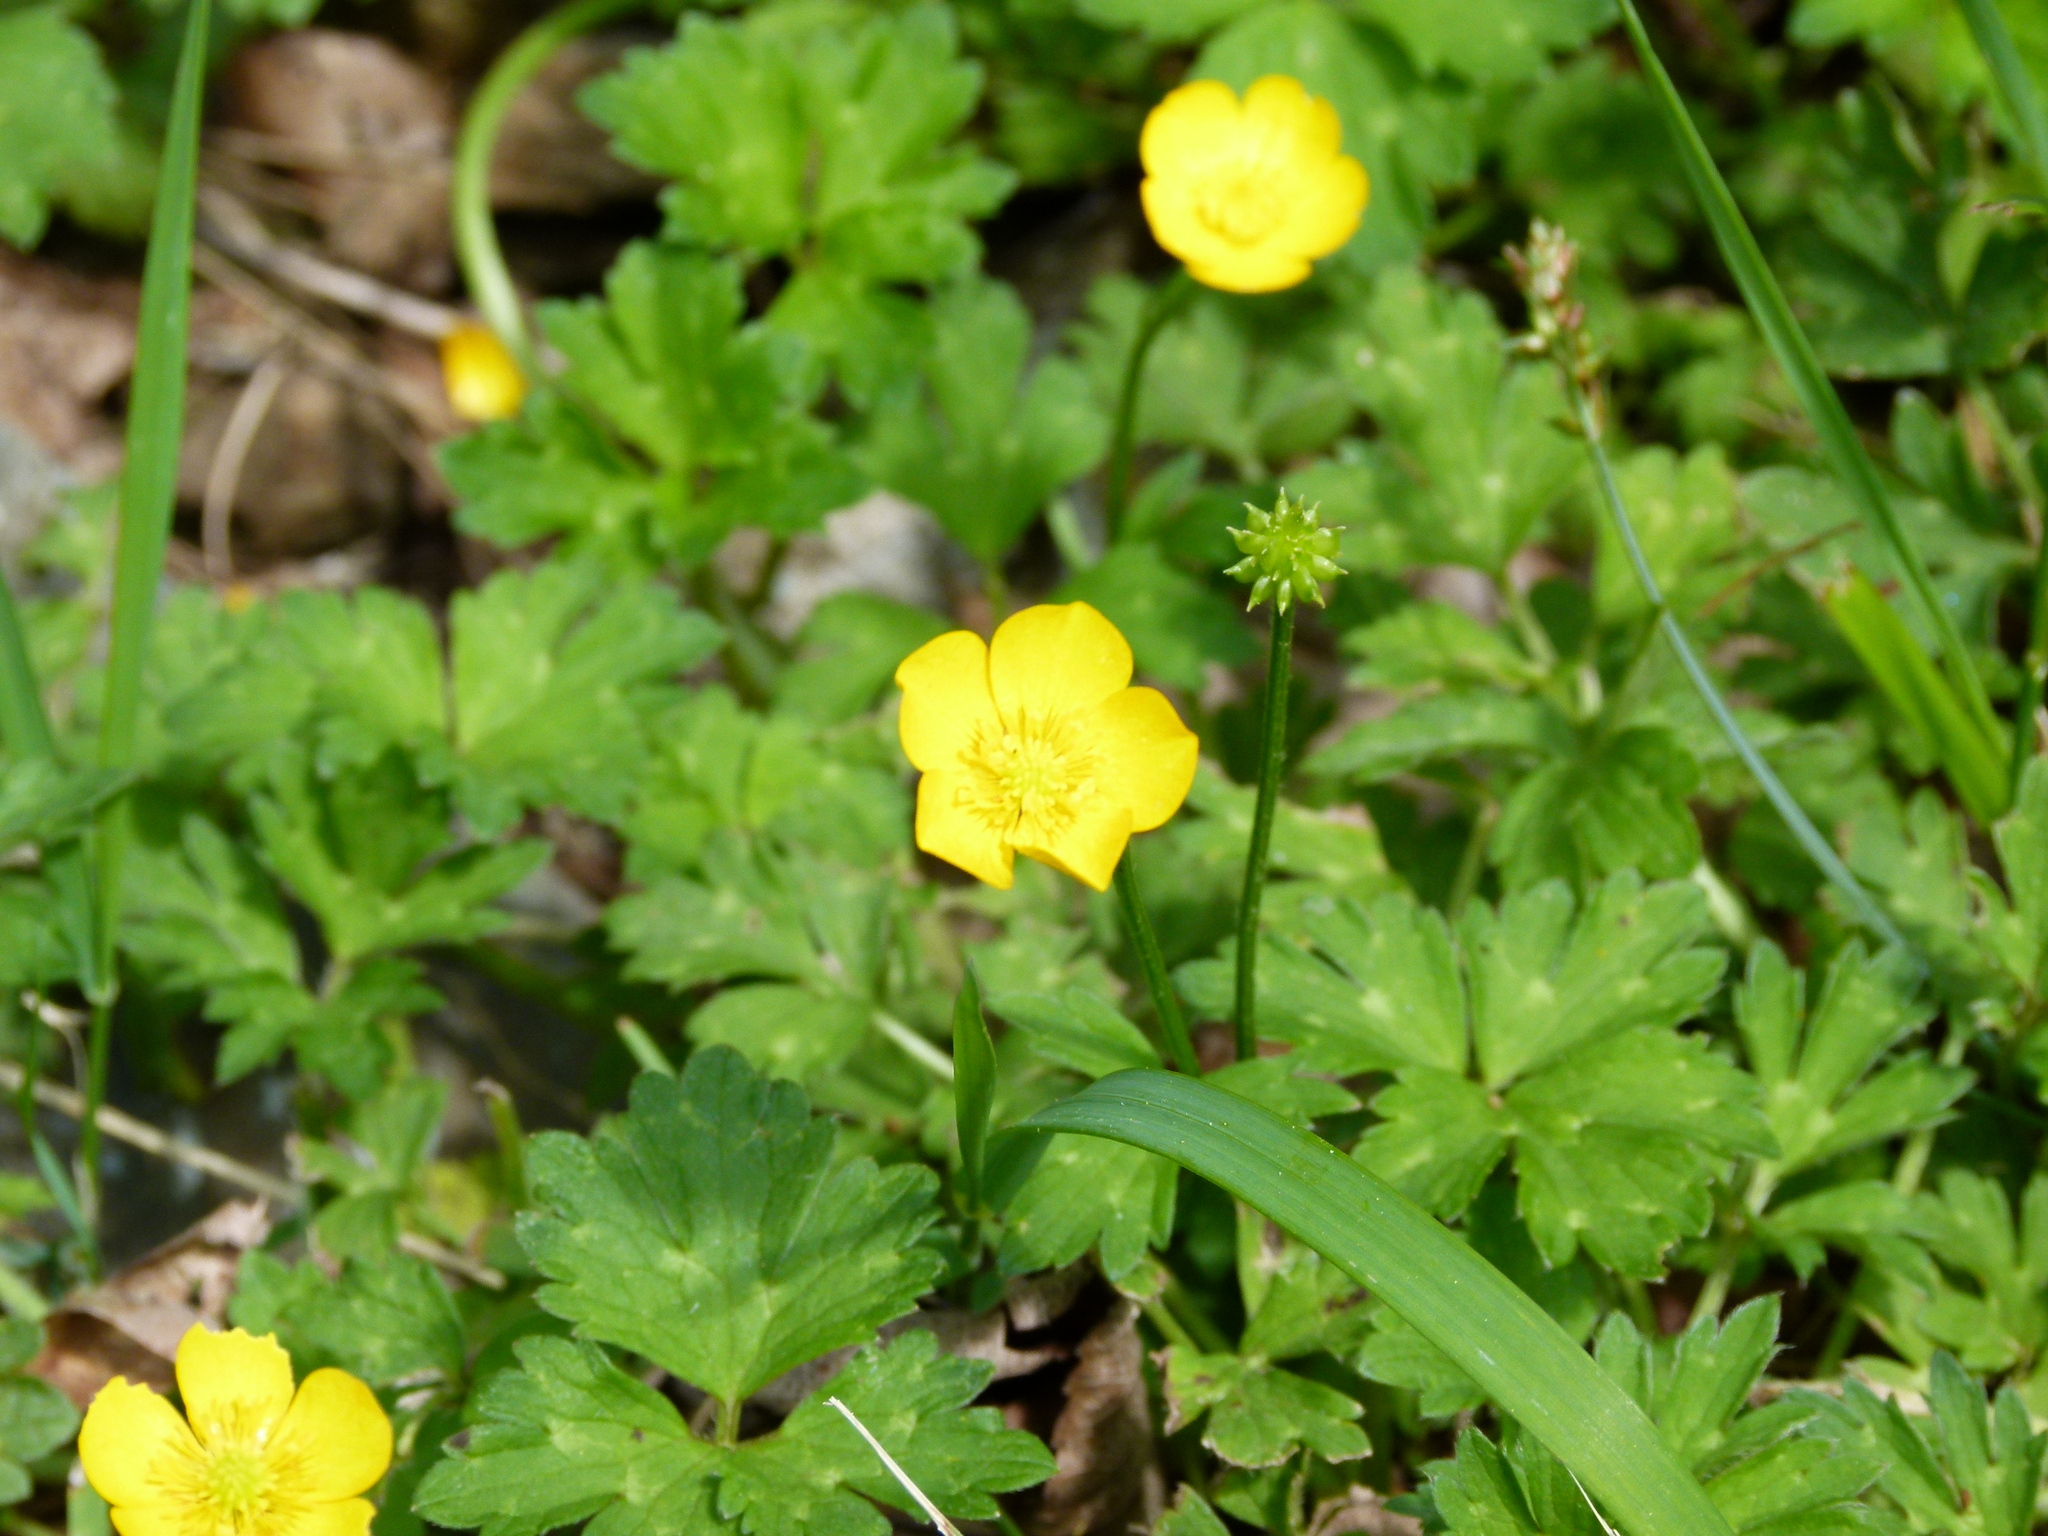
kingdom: Plantae
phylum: Tracheophyta
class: Magnoliopsida
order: Ranunculales
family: Ranunculaceae
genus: Ranunculus
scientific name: Ranunculus repens
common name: Creeping buttercup
